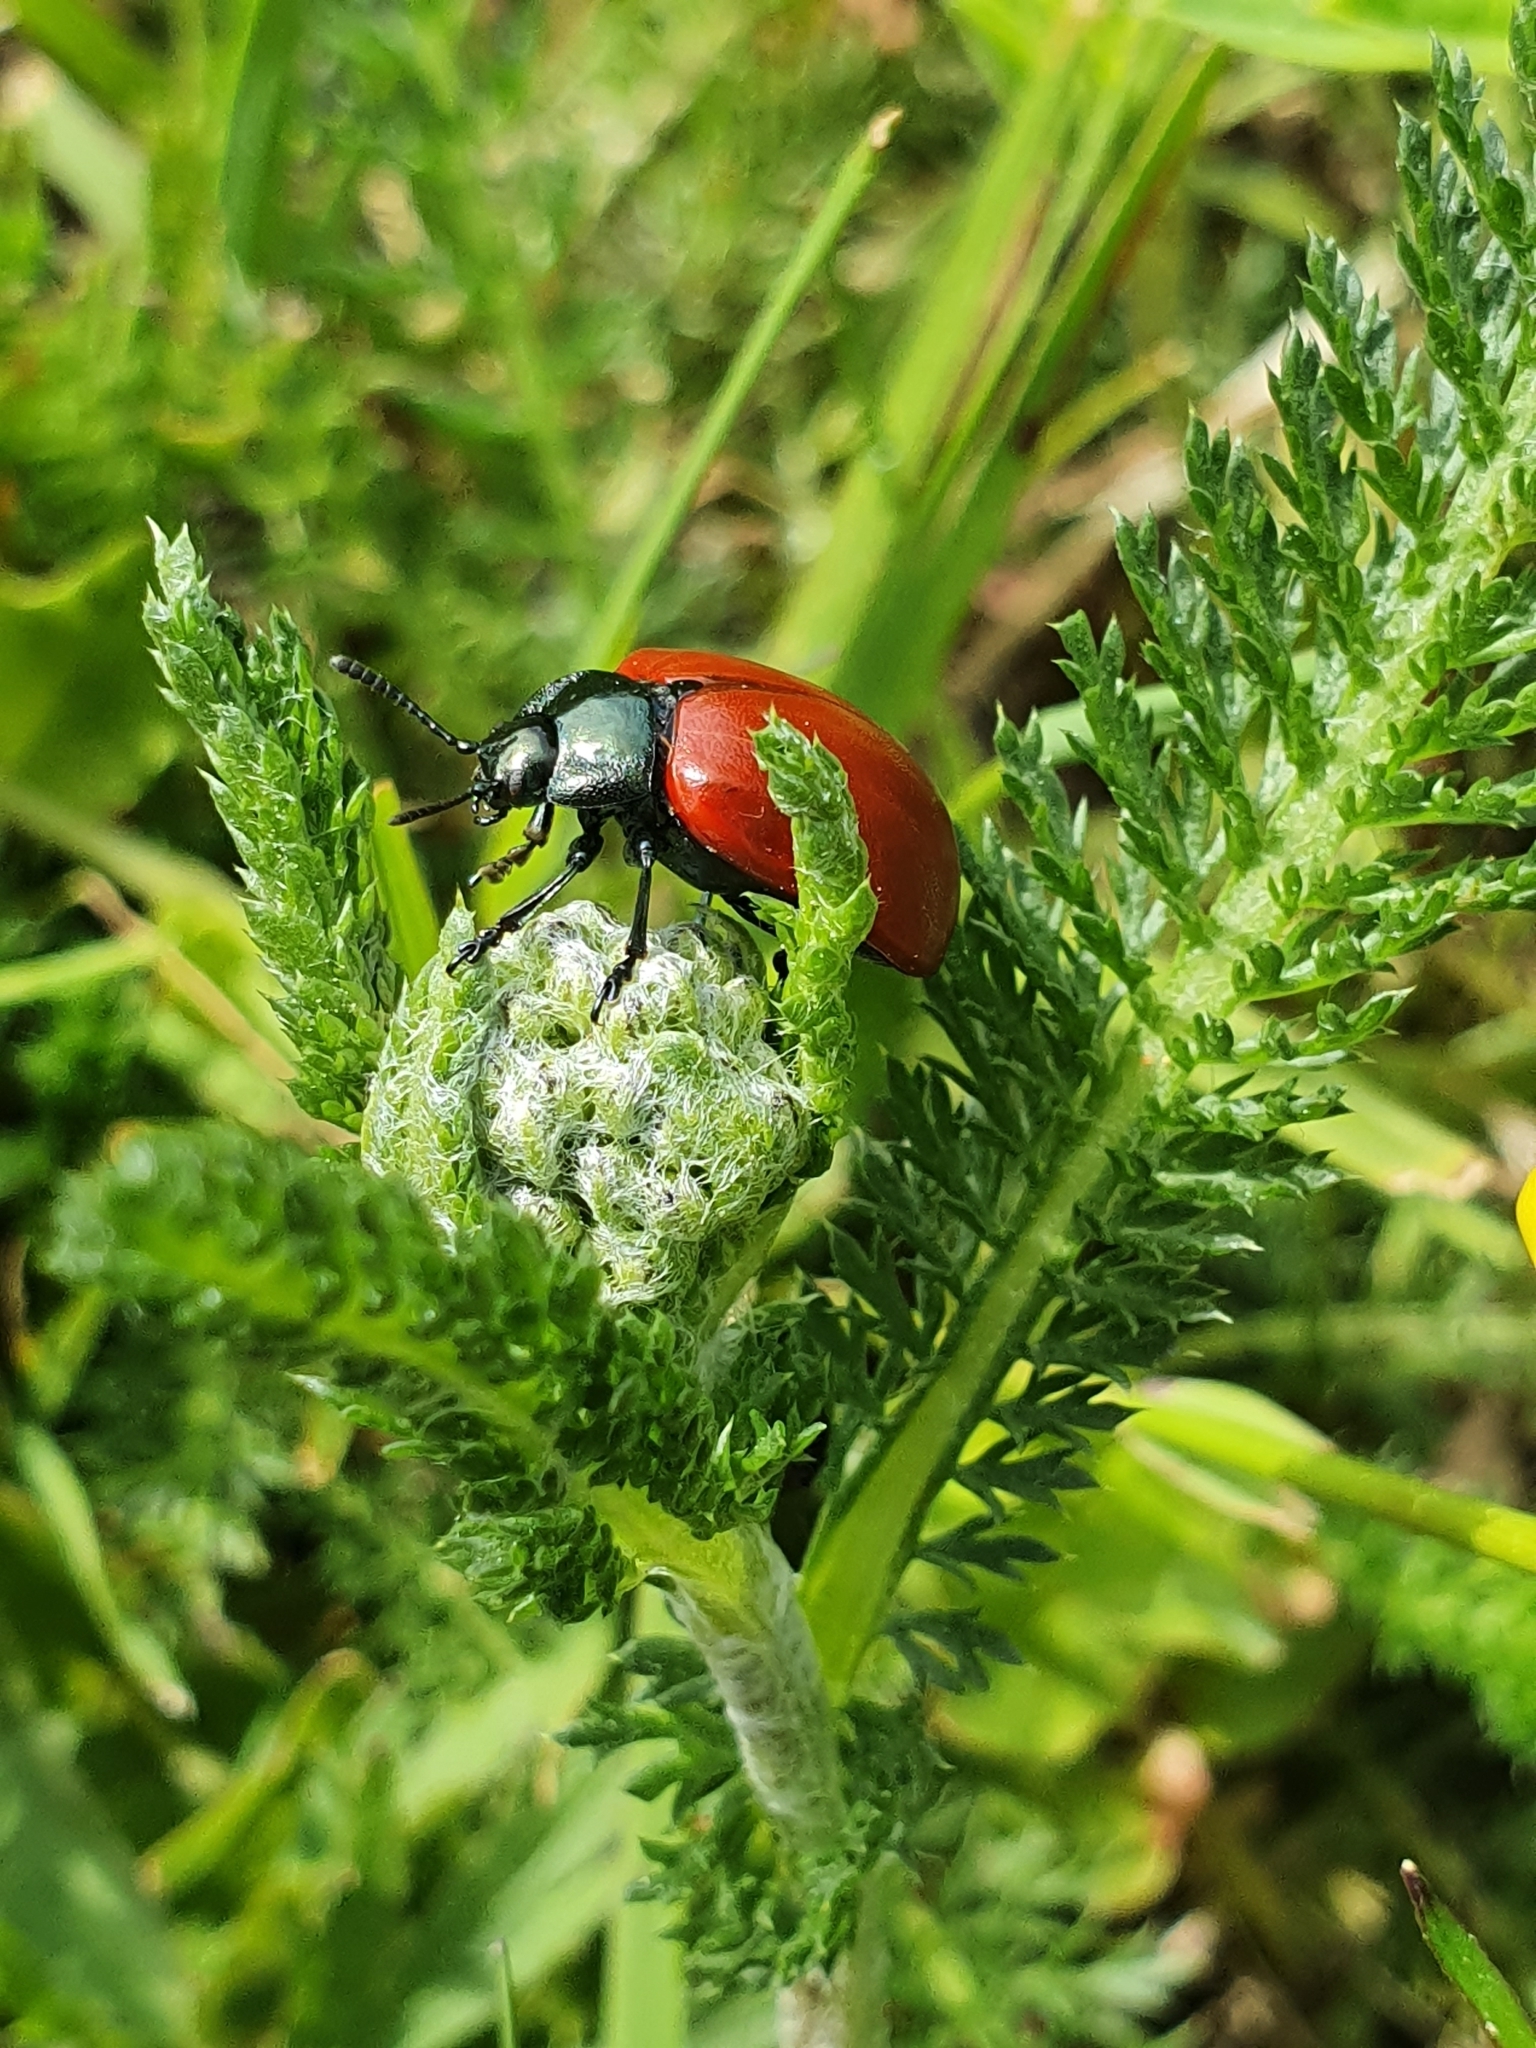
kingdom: Animalia
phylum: Arthropoda
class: Insecta
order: Coleoptera
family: Chrysomelidae
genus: Chrysomela
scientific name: Chrysomela populi
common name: Red poplar leaf beetle
